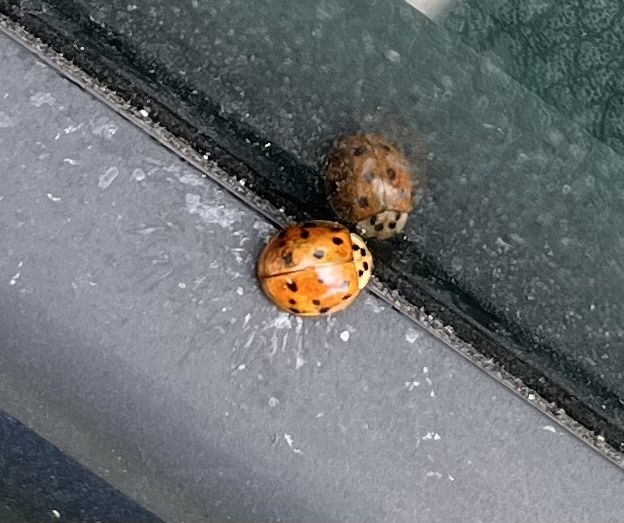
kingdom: Animalia
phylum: Arthropoda
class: Insecta
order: Coleoptera
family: Coccinellidae
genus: Harmonia
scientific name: Harmonia axyridis
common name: Harlequin ladybird
